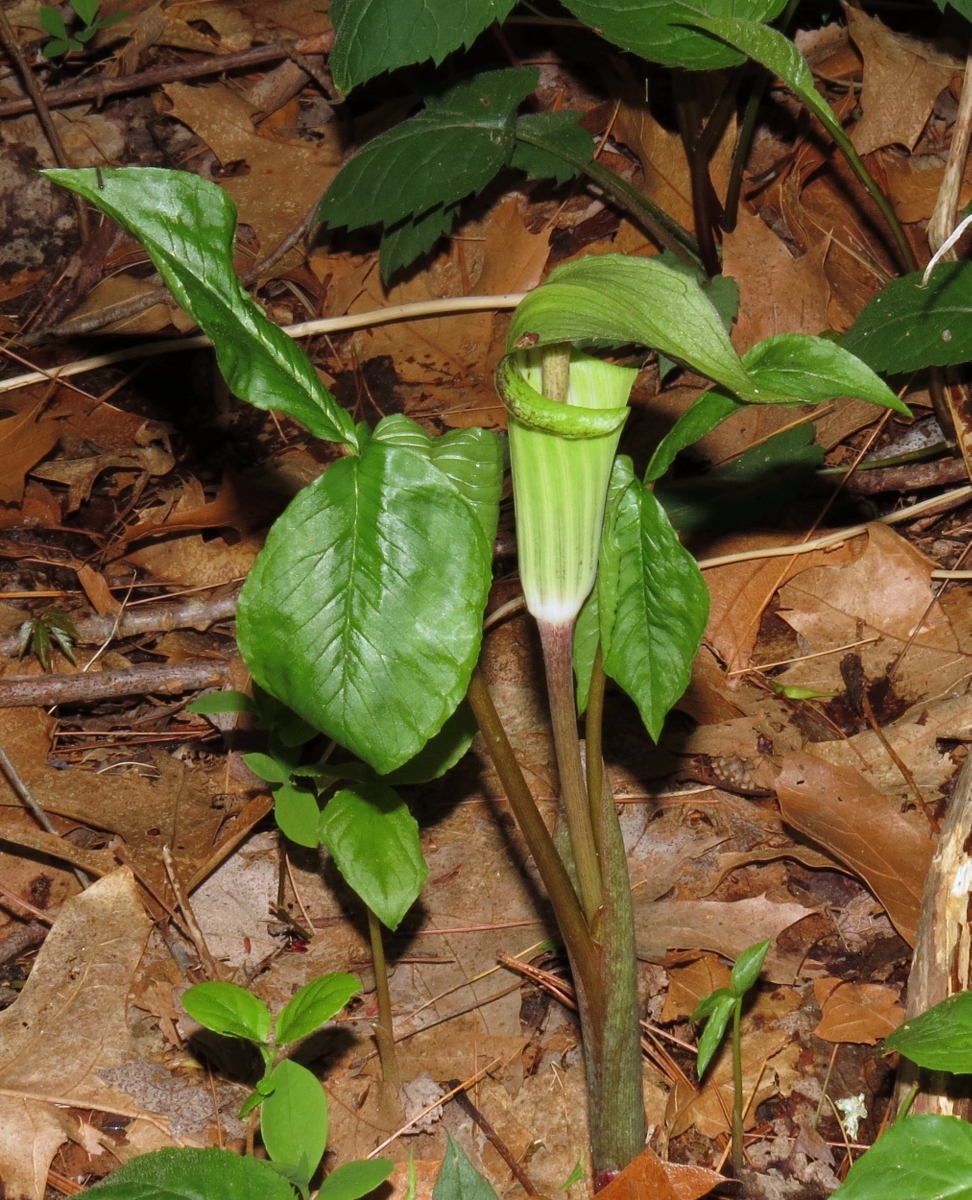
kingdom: Plantae
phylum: Tracheophyta
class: Liliopsida
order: Alismatales
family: Araceae
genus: Arisaema
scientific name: Arisaema triphyllum
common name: Jack-in-the-pulpit
